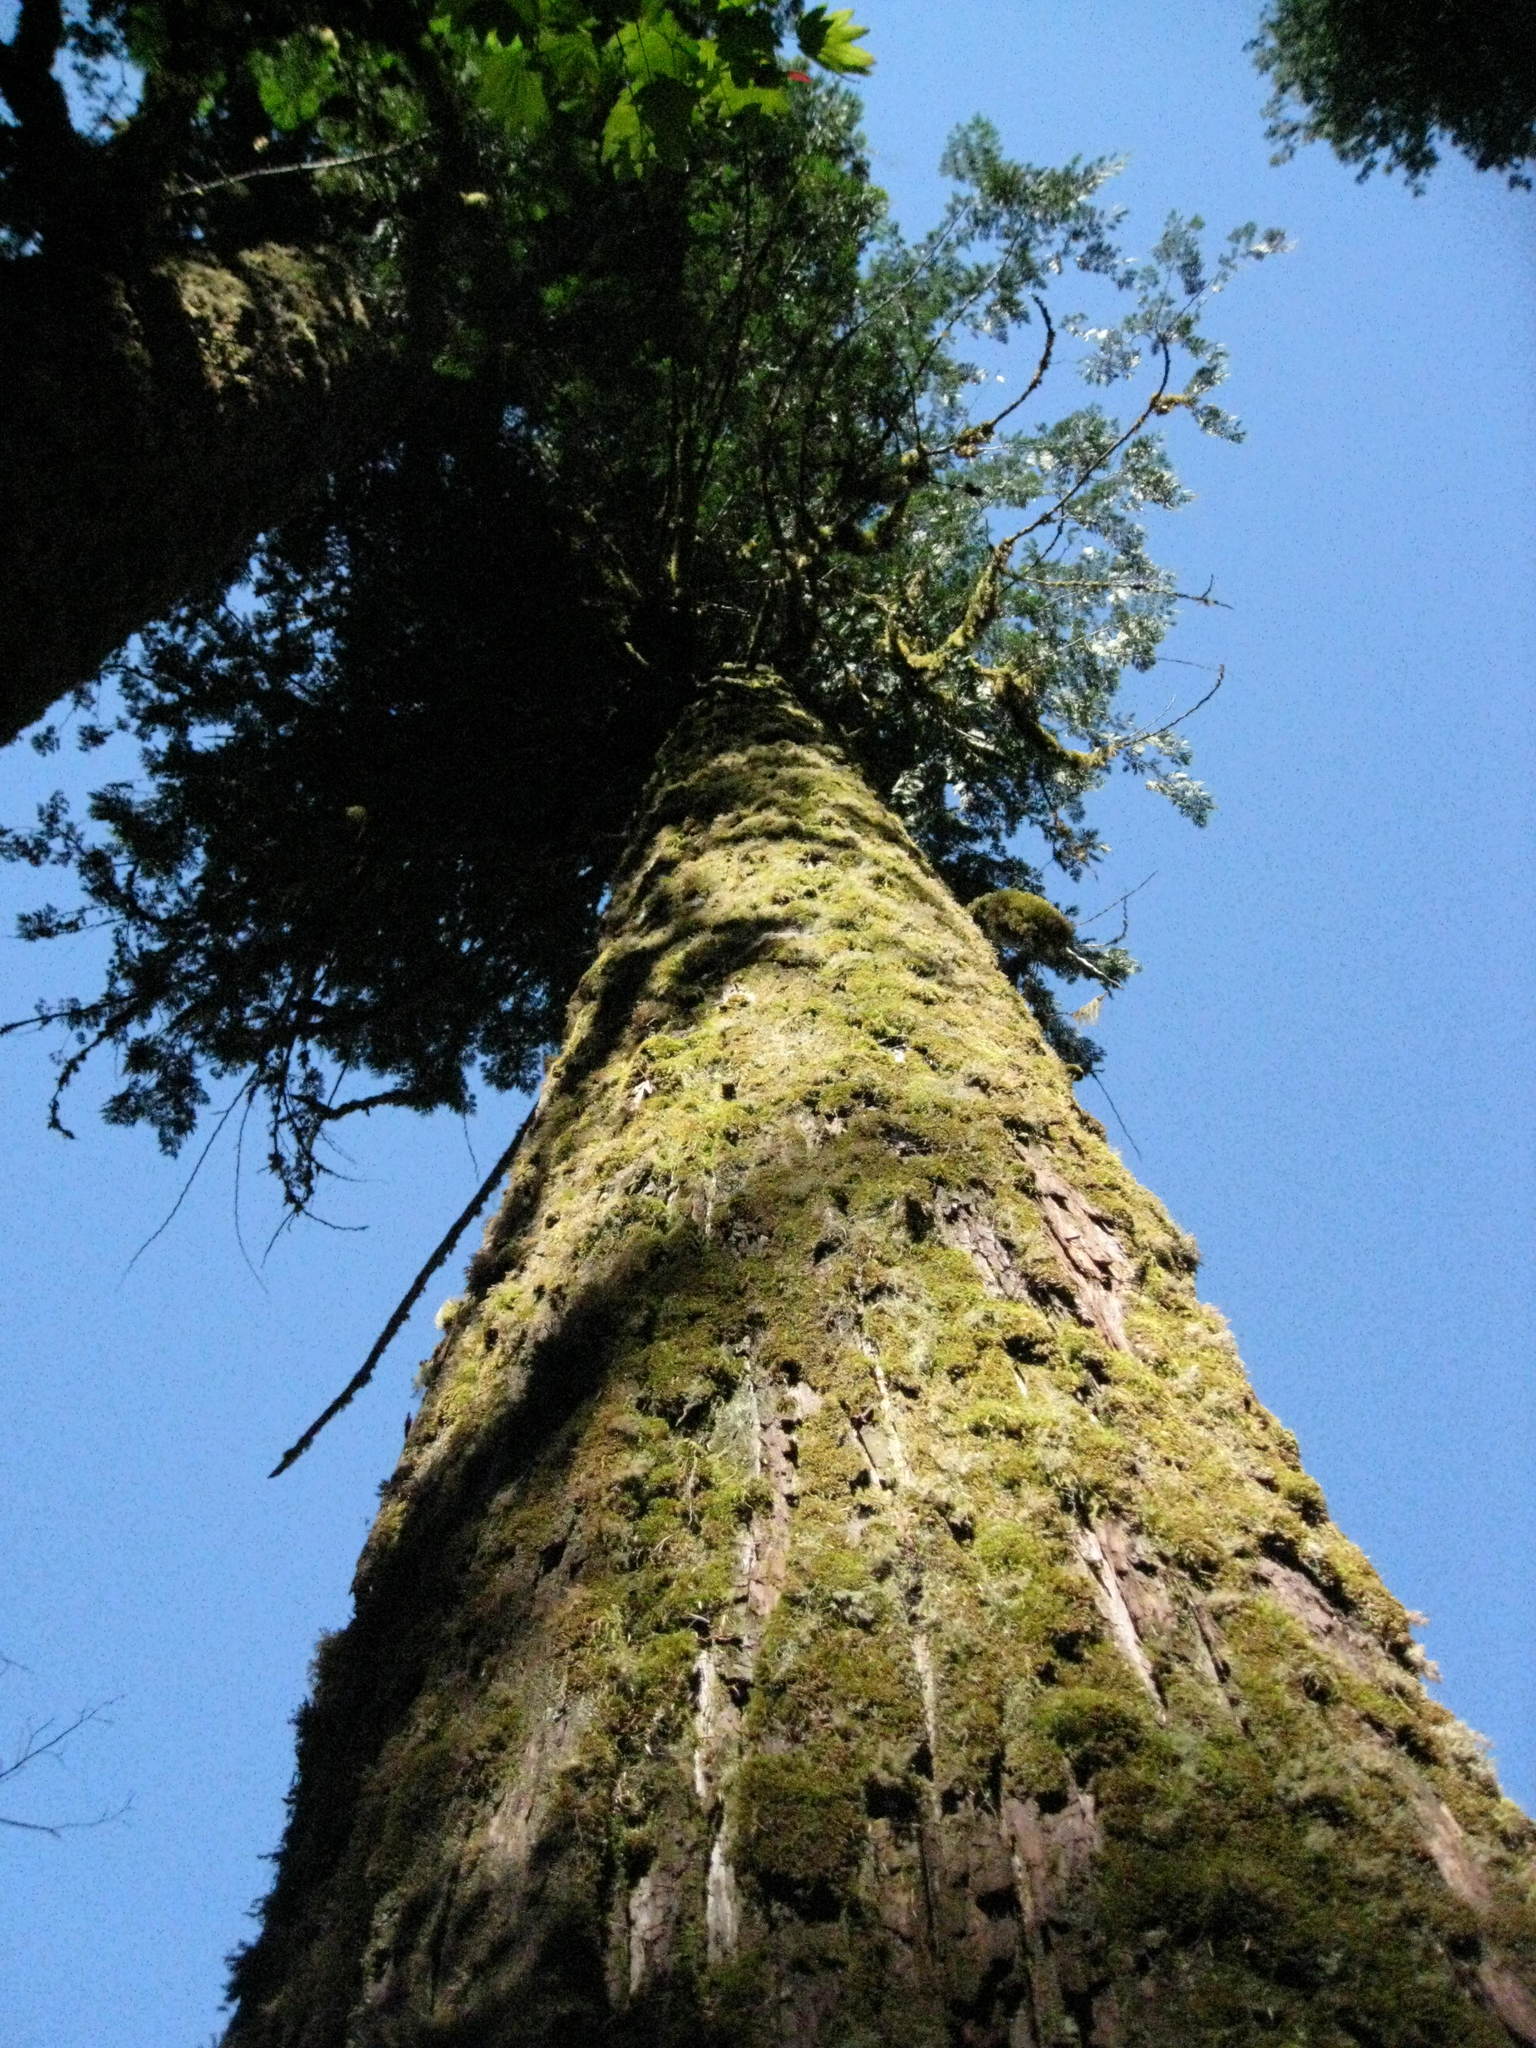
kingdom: Plantae
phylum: Tracheophyta
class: Pinopsida
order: Pinales
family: Cupressaceae
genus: Thuja
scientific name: Thuja plicata
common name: Western red-cedar
